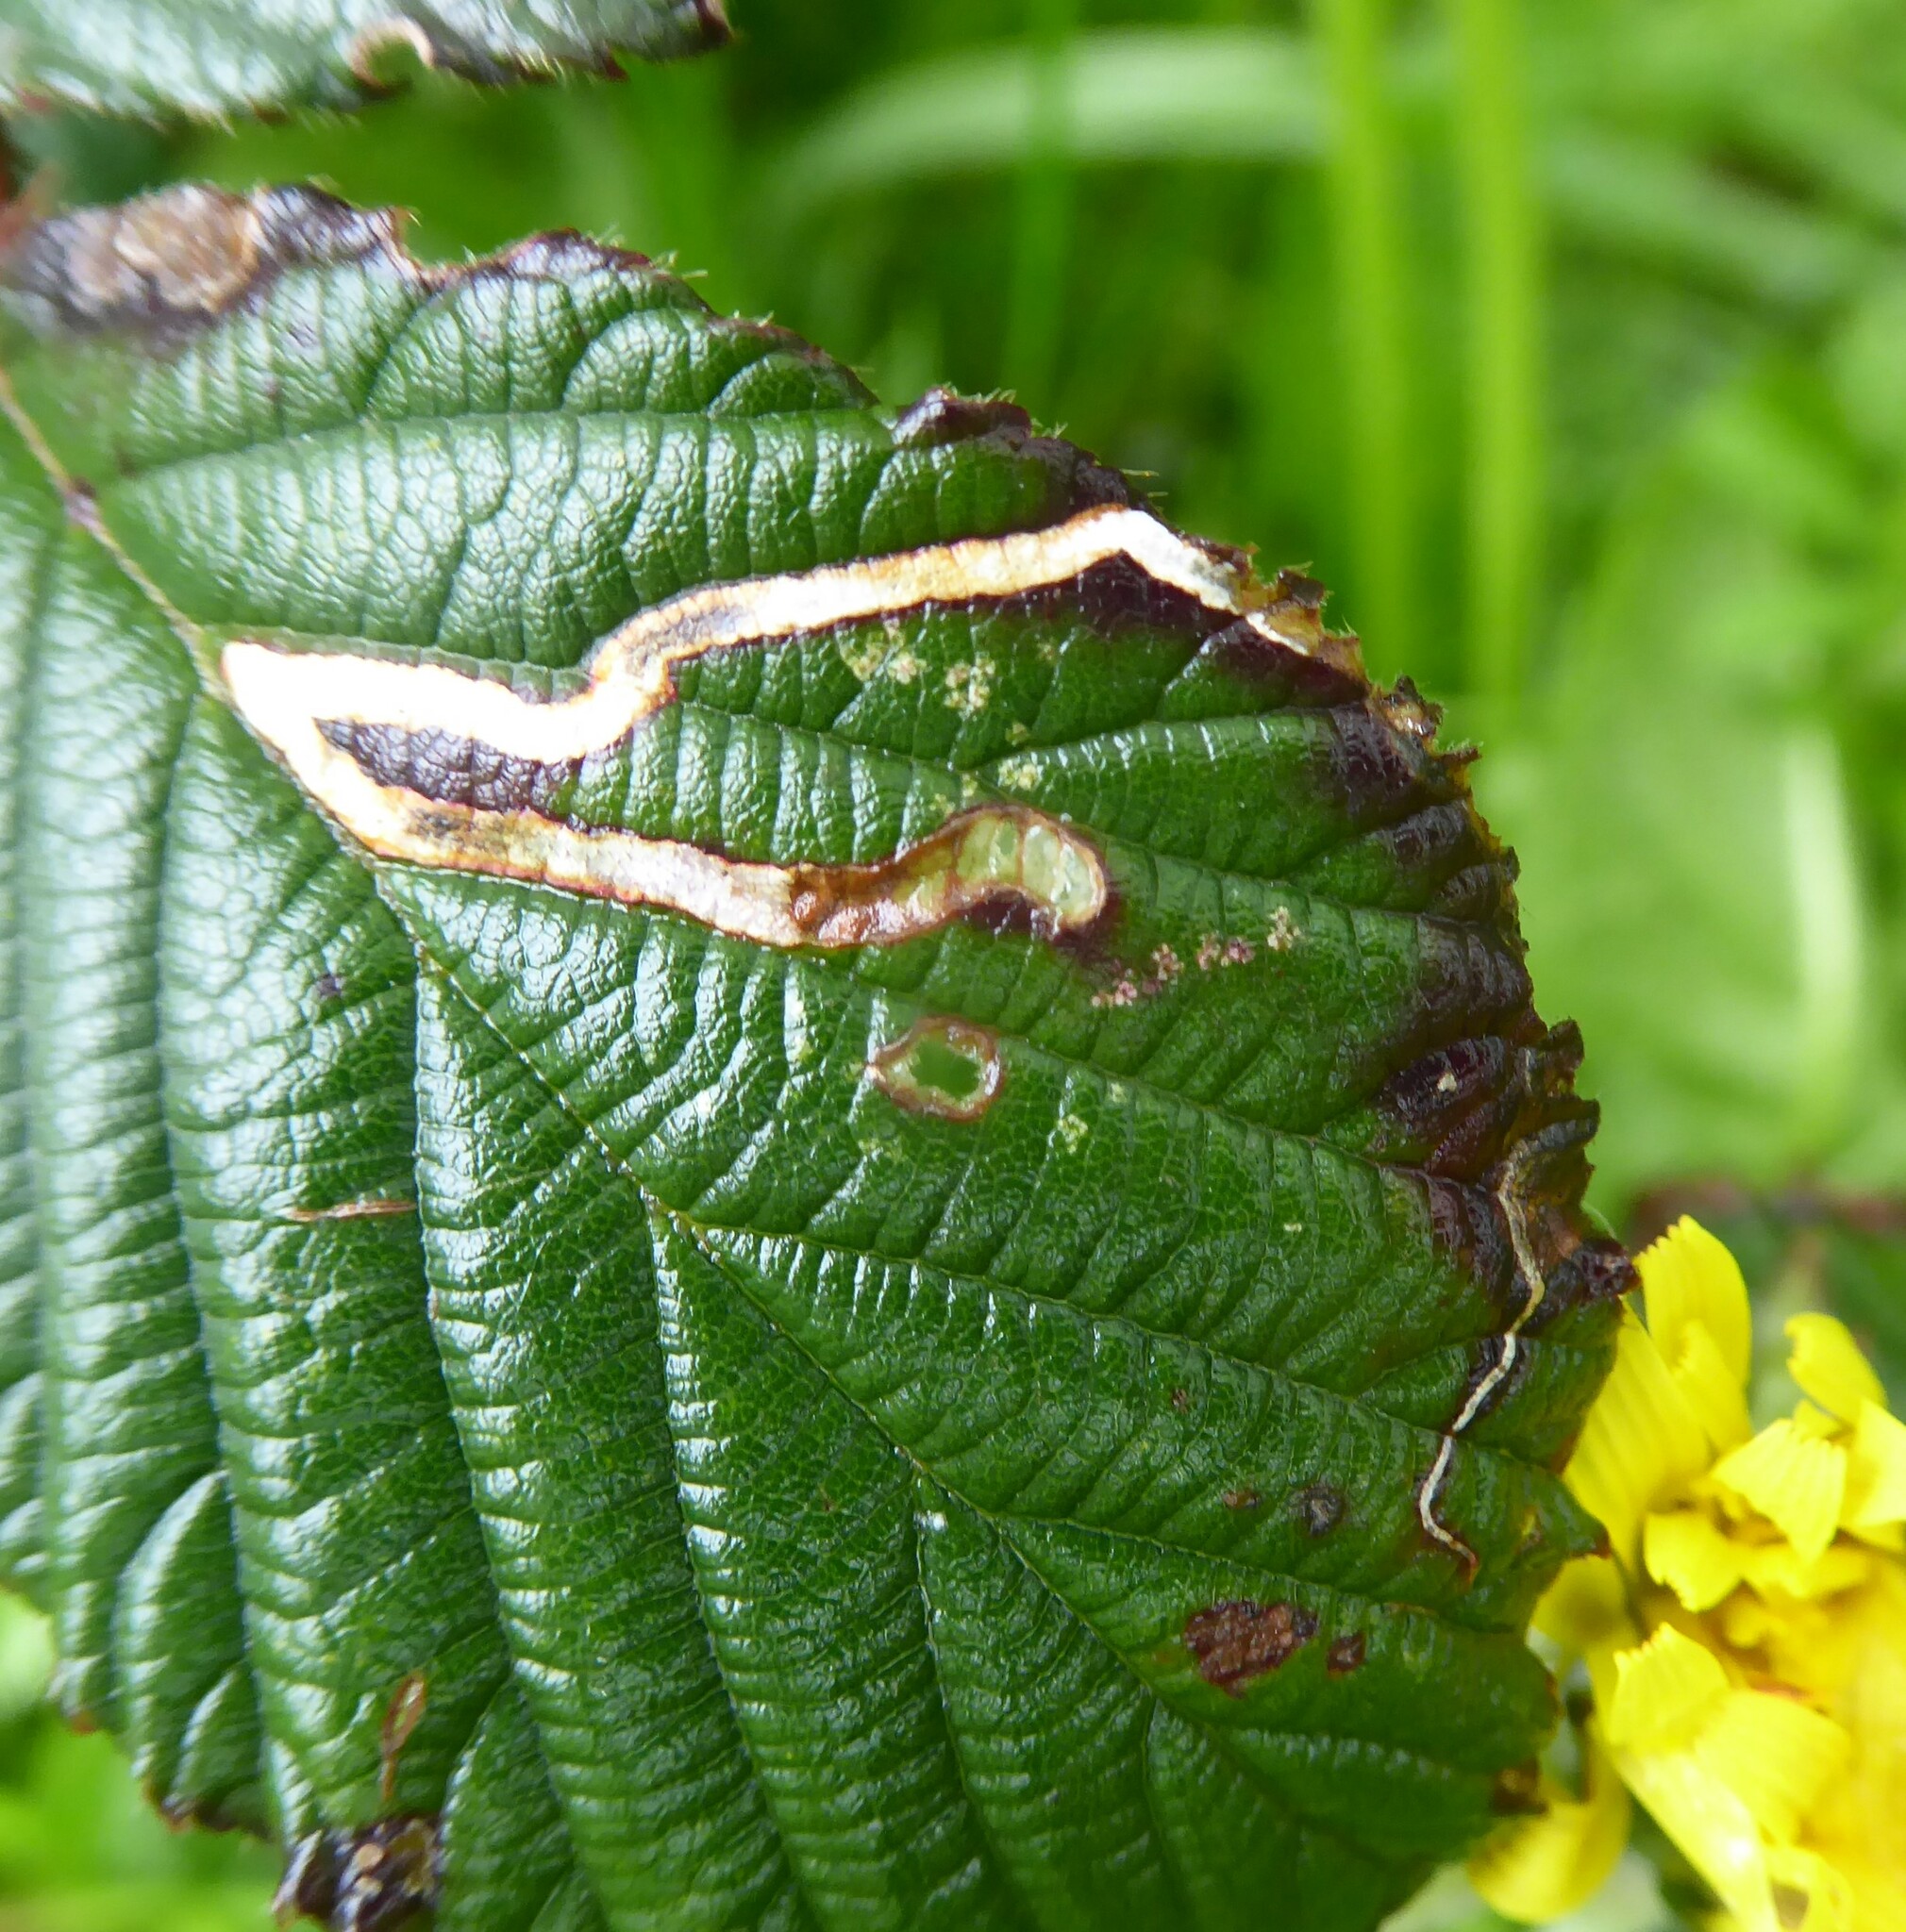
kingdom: Animalia
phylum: Arthropoda
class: Insecta
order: Lepidoptera
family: Nepticulidae
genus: Stigmella
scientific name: Stigmella aurella
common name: Golden pigmy
